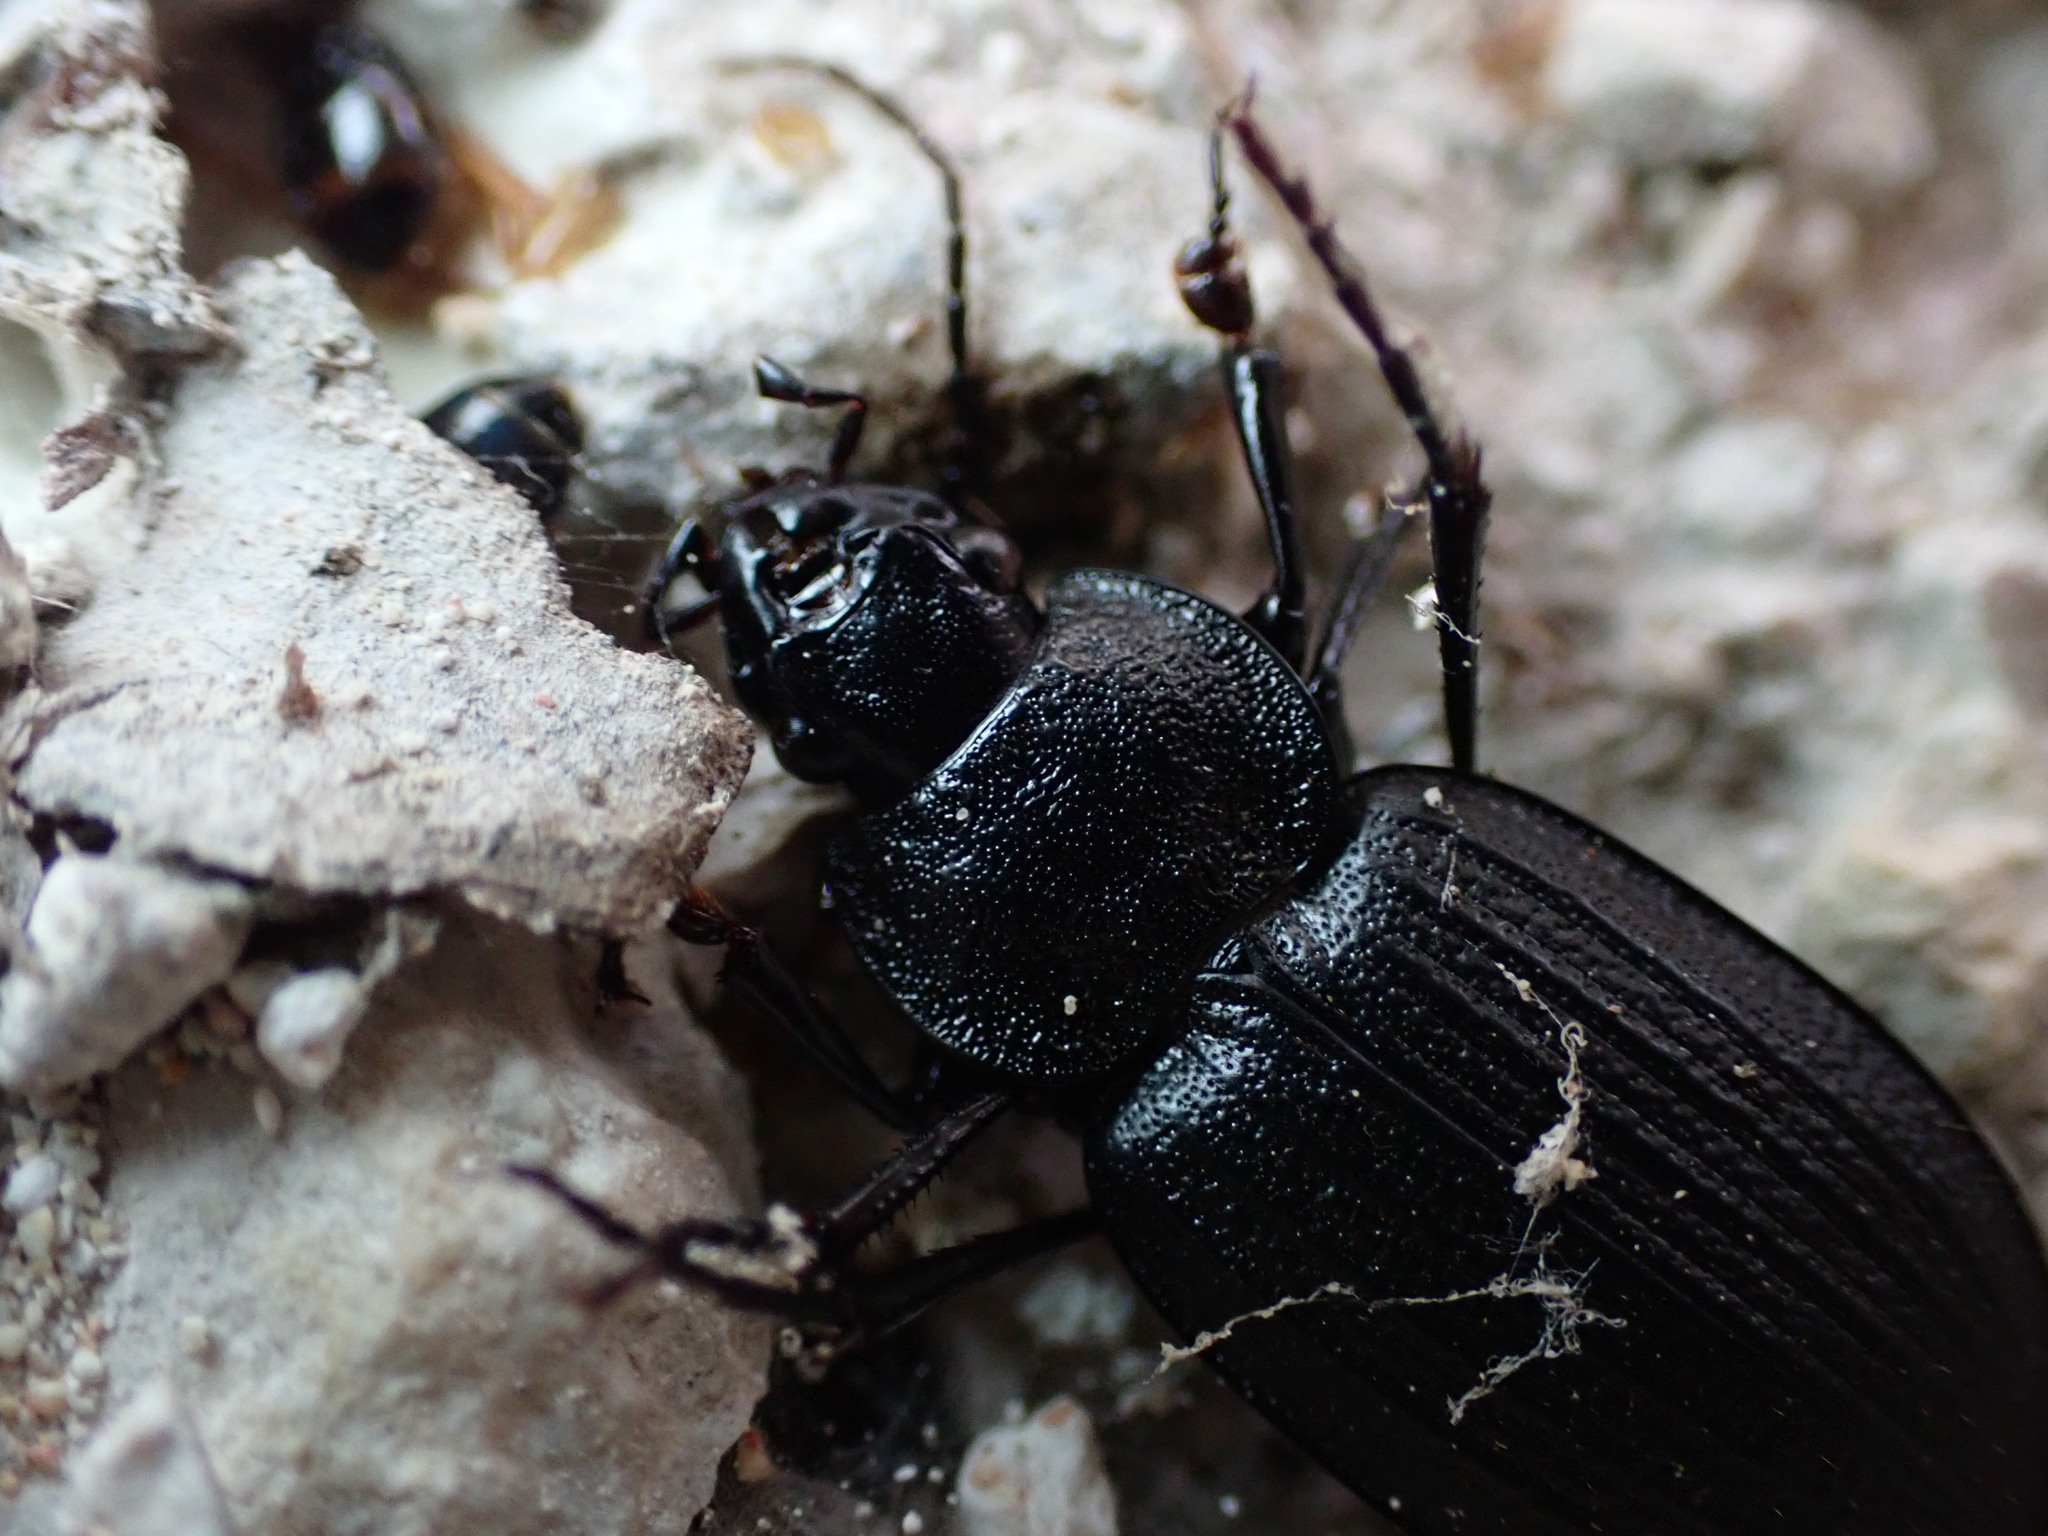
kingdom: Animalia
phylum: Arthropoda
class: Insecta
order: Coleoptera
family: Carabidae
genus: Licinus
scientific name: Licinus silphoides
